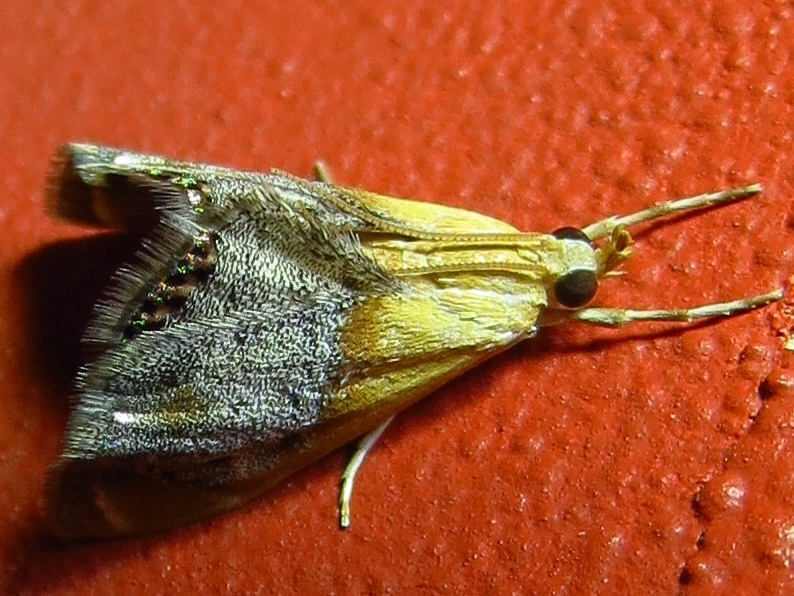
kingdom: Animalia
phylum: Arthropoda
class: Insecta
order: Lepidoptera
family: Crambidae
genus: Chalcoela
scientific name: Chalcoela iphitalis
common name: Sooty-winged chalcoela moth
